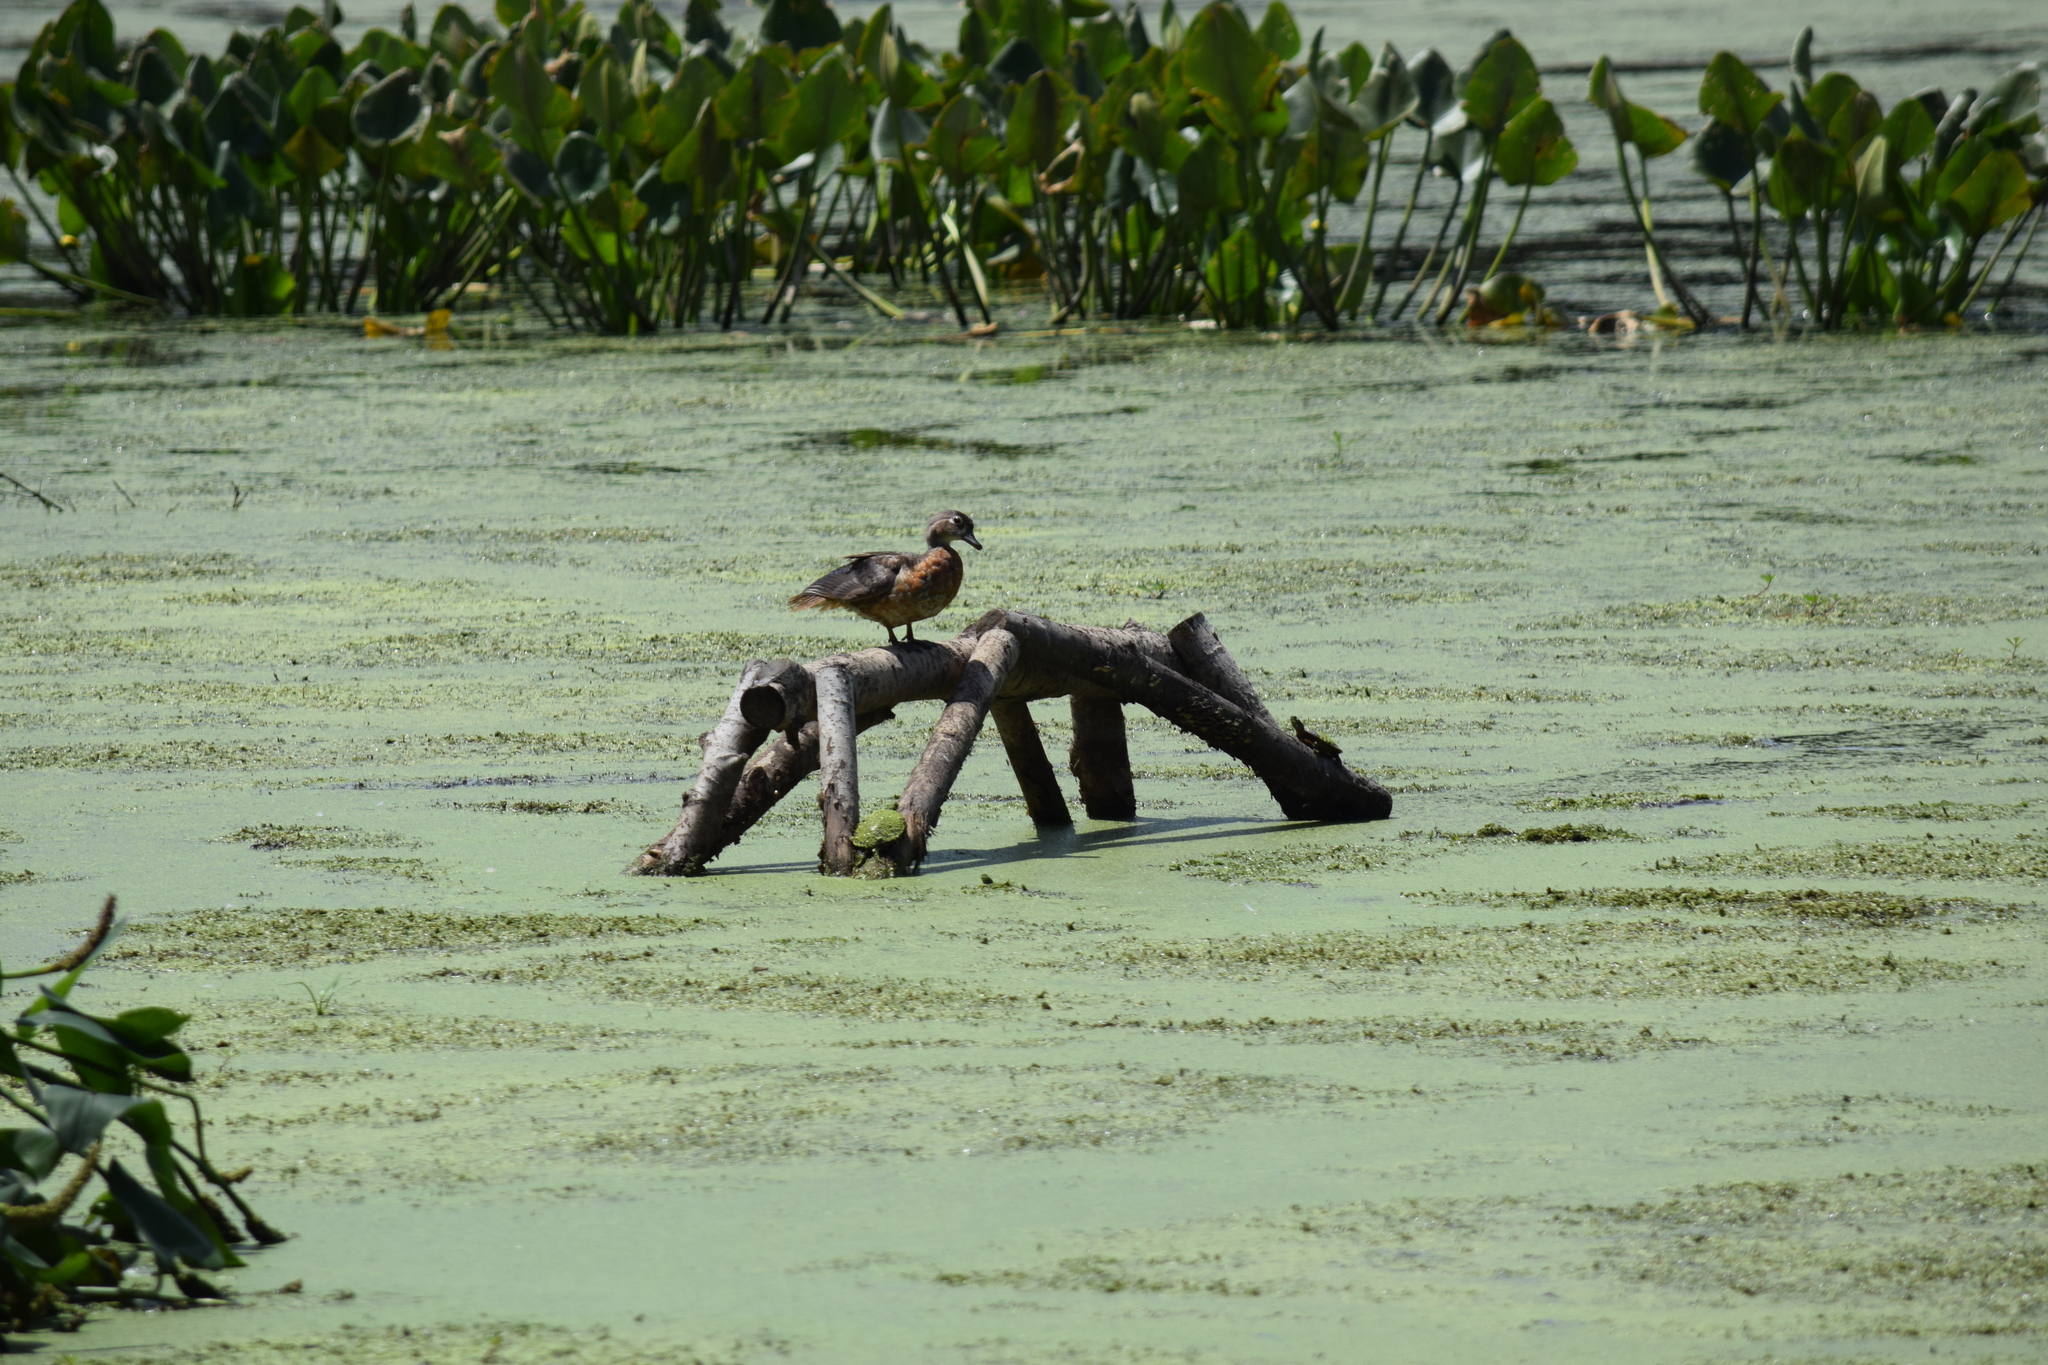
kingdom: Animalia
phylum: Chordata
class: Aves
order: Anseriformes
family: Anatidae
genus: Aix
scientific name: Aix sponsa
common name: Wood duck
